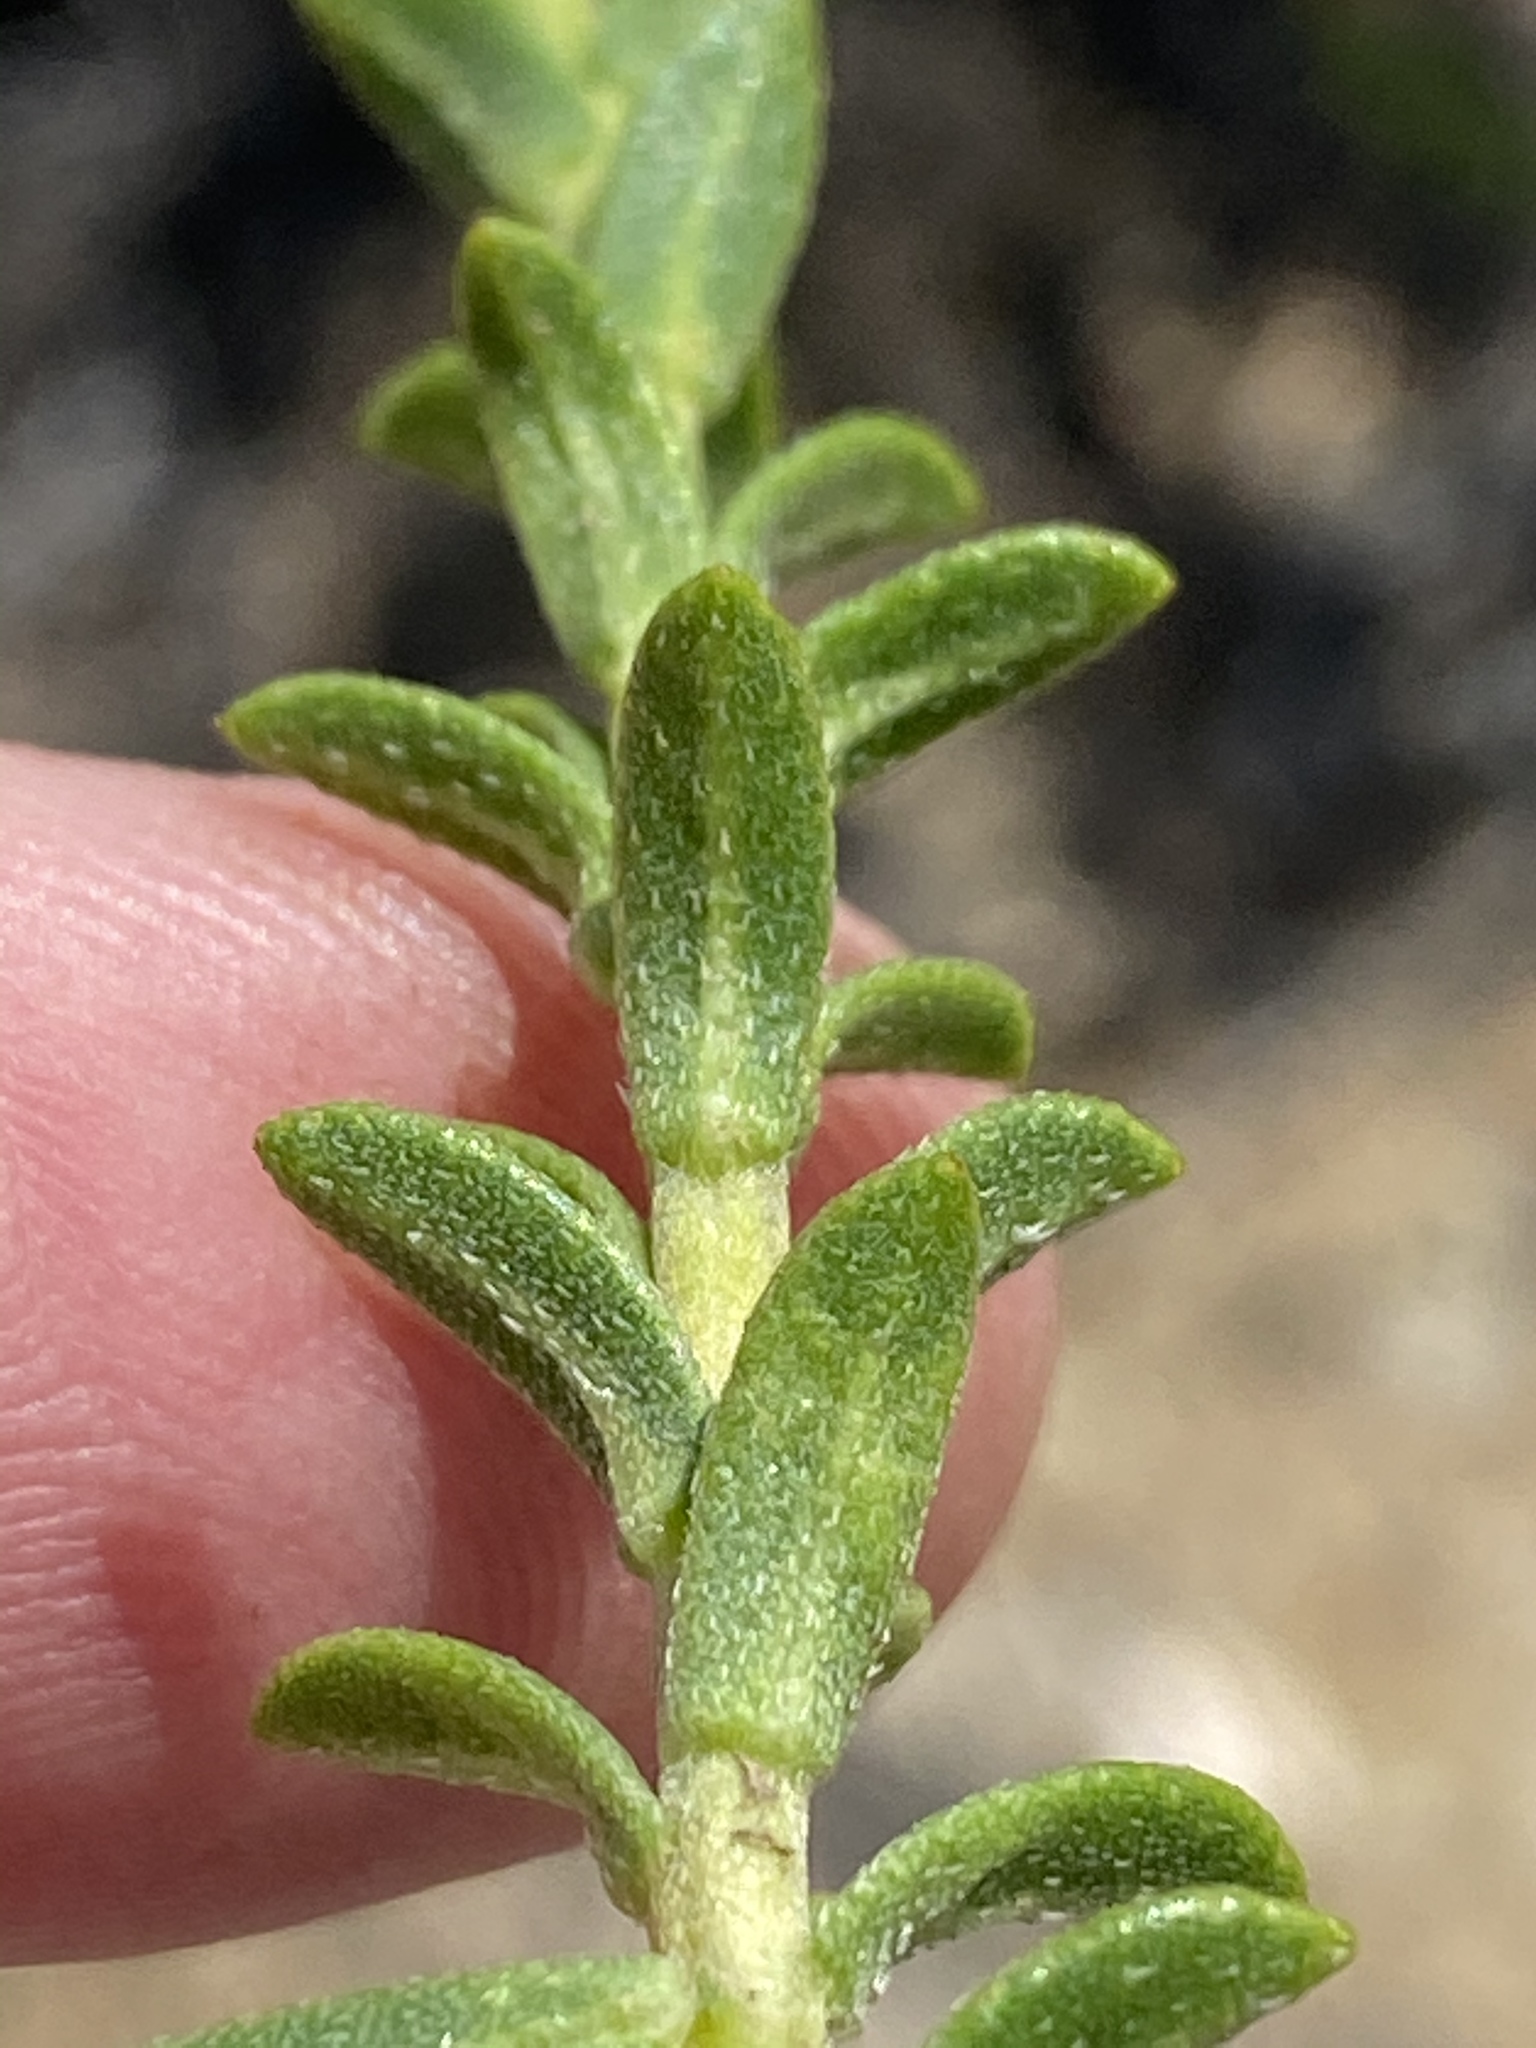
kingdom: Plantae
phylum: Tracheophyta
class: Magnoliopsida
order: Boraginales
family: Boraginaceae
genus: Lobostemon
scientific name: Lobostemon echioides
